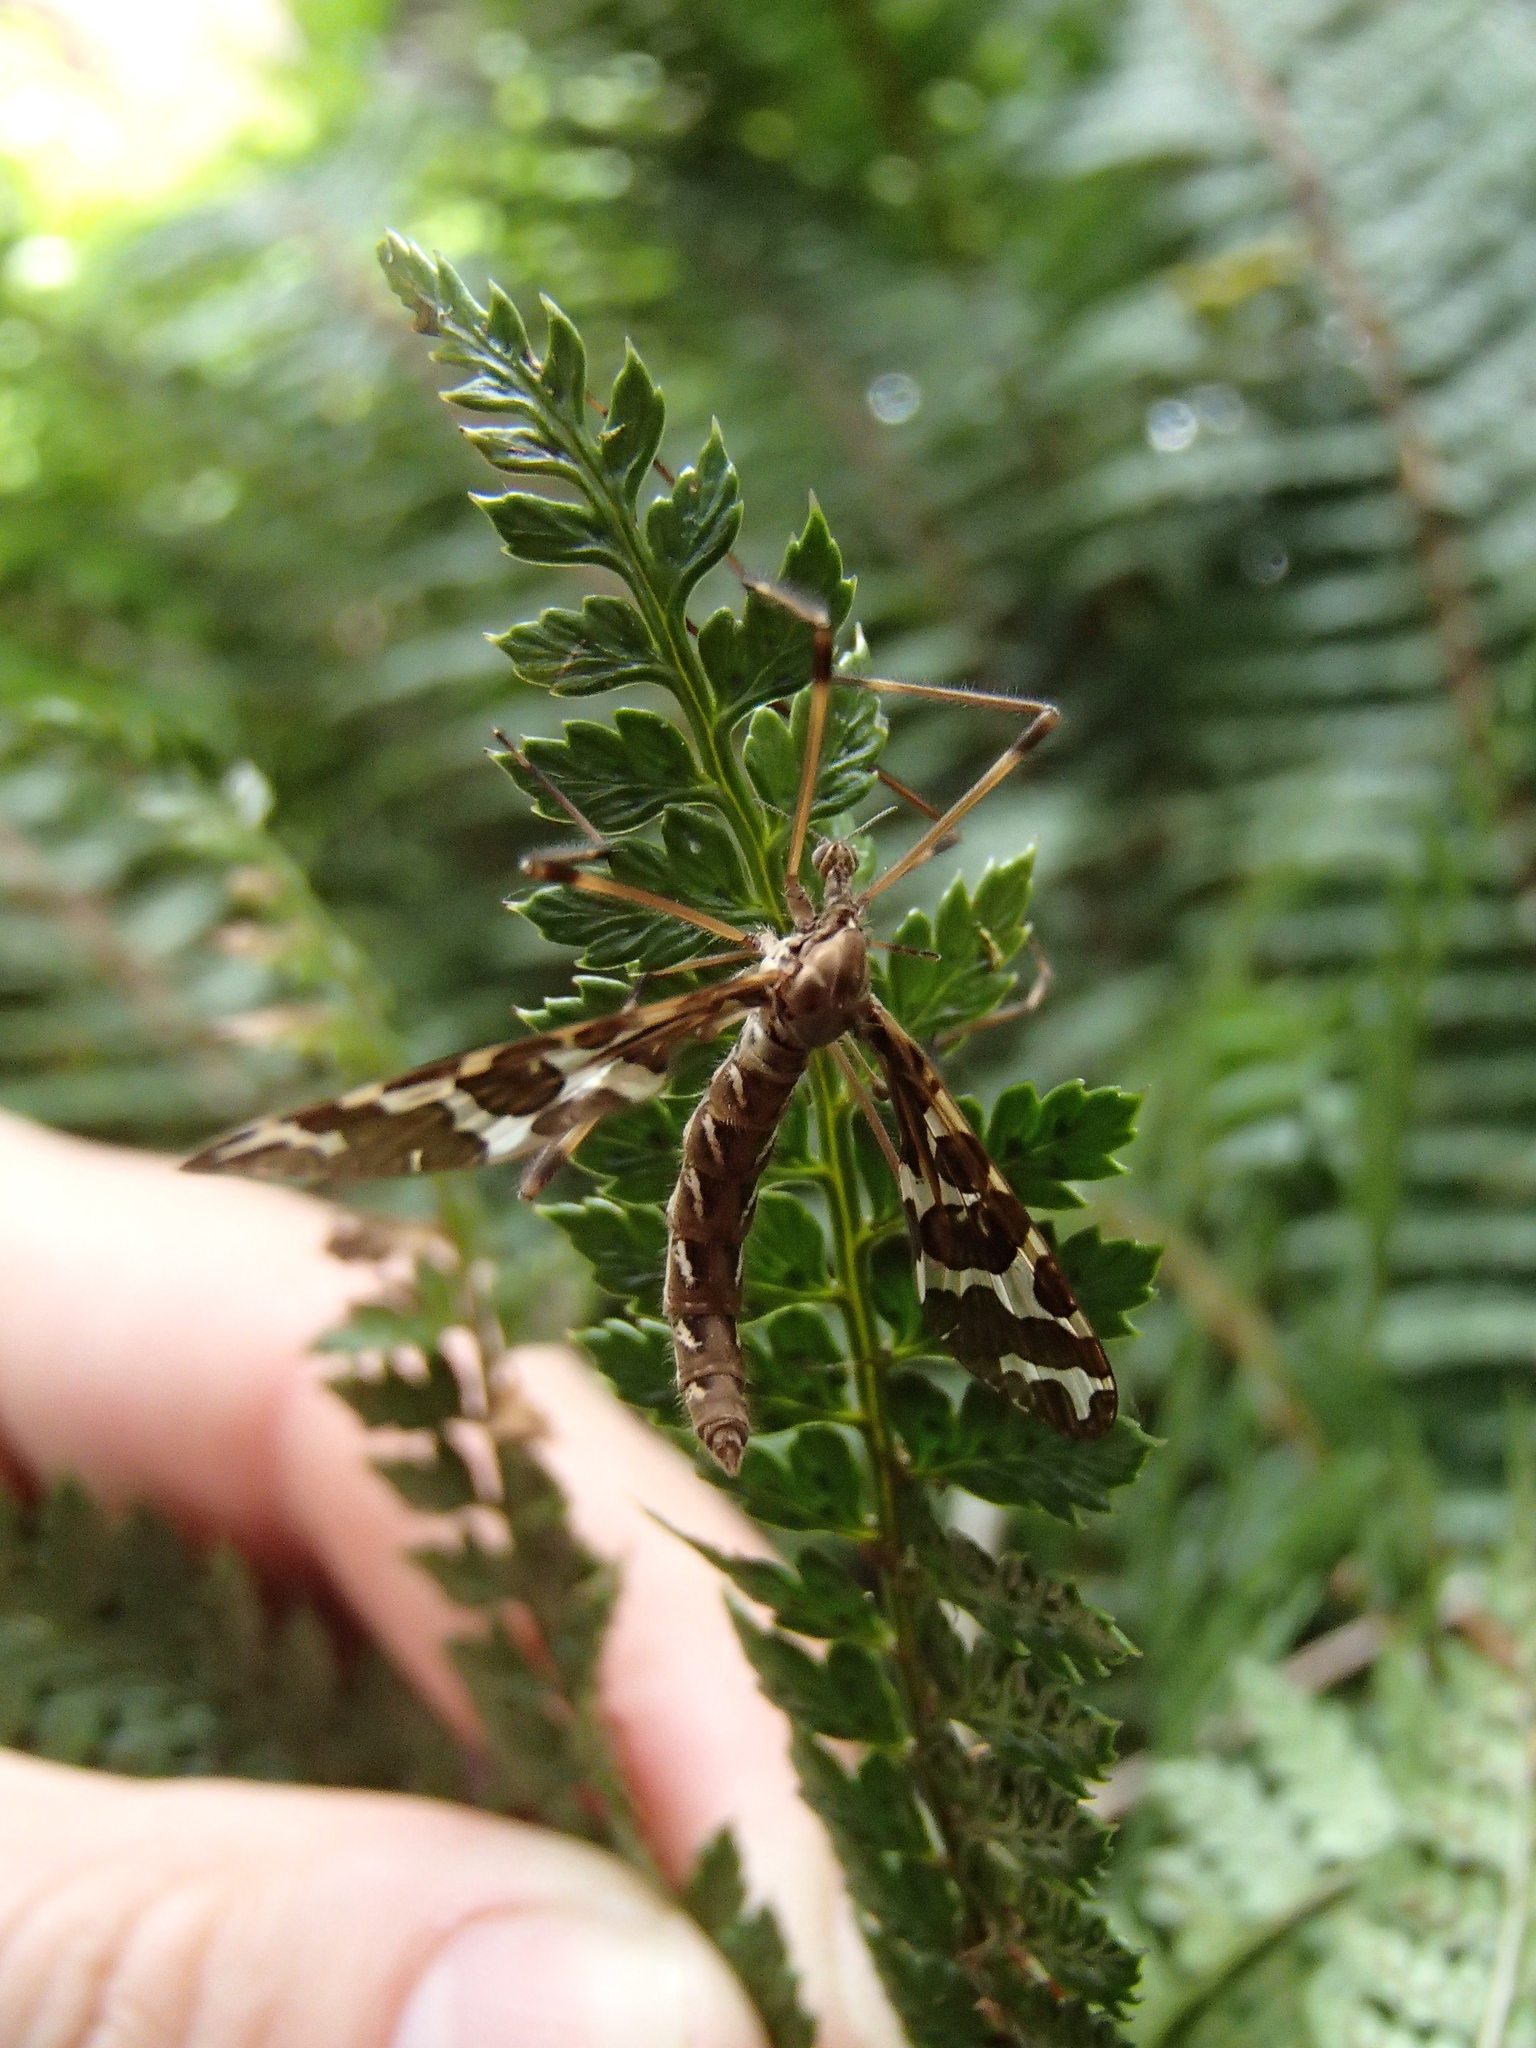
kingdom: Animalia
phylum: Arthropoda
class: Insecta
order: Diptera
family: Tanyderidae
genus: Tanyderus
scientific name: Tanyderus forcipatus
